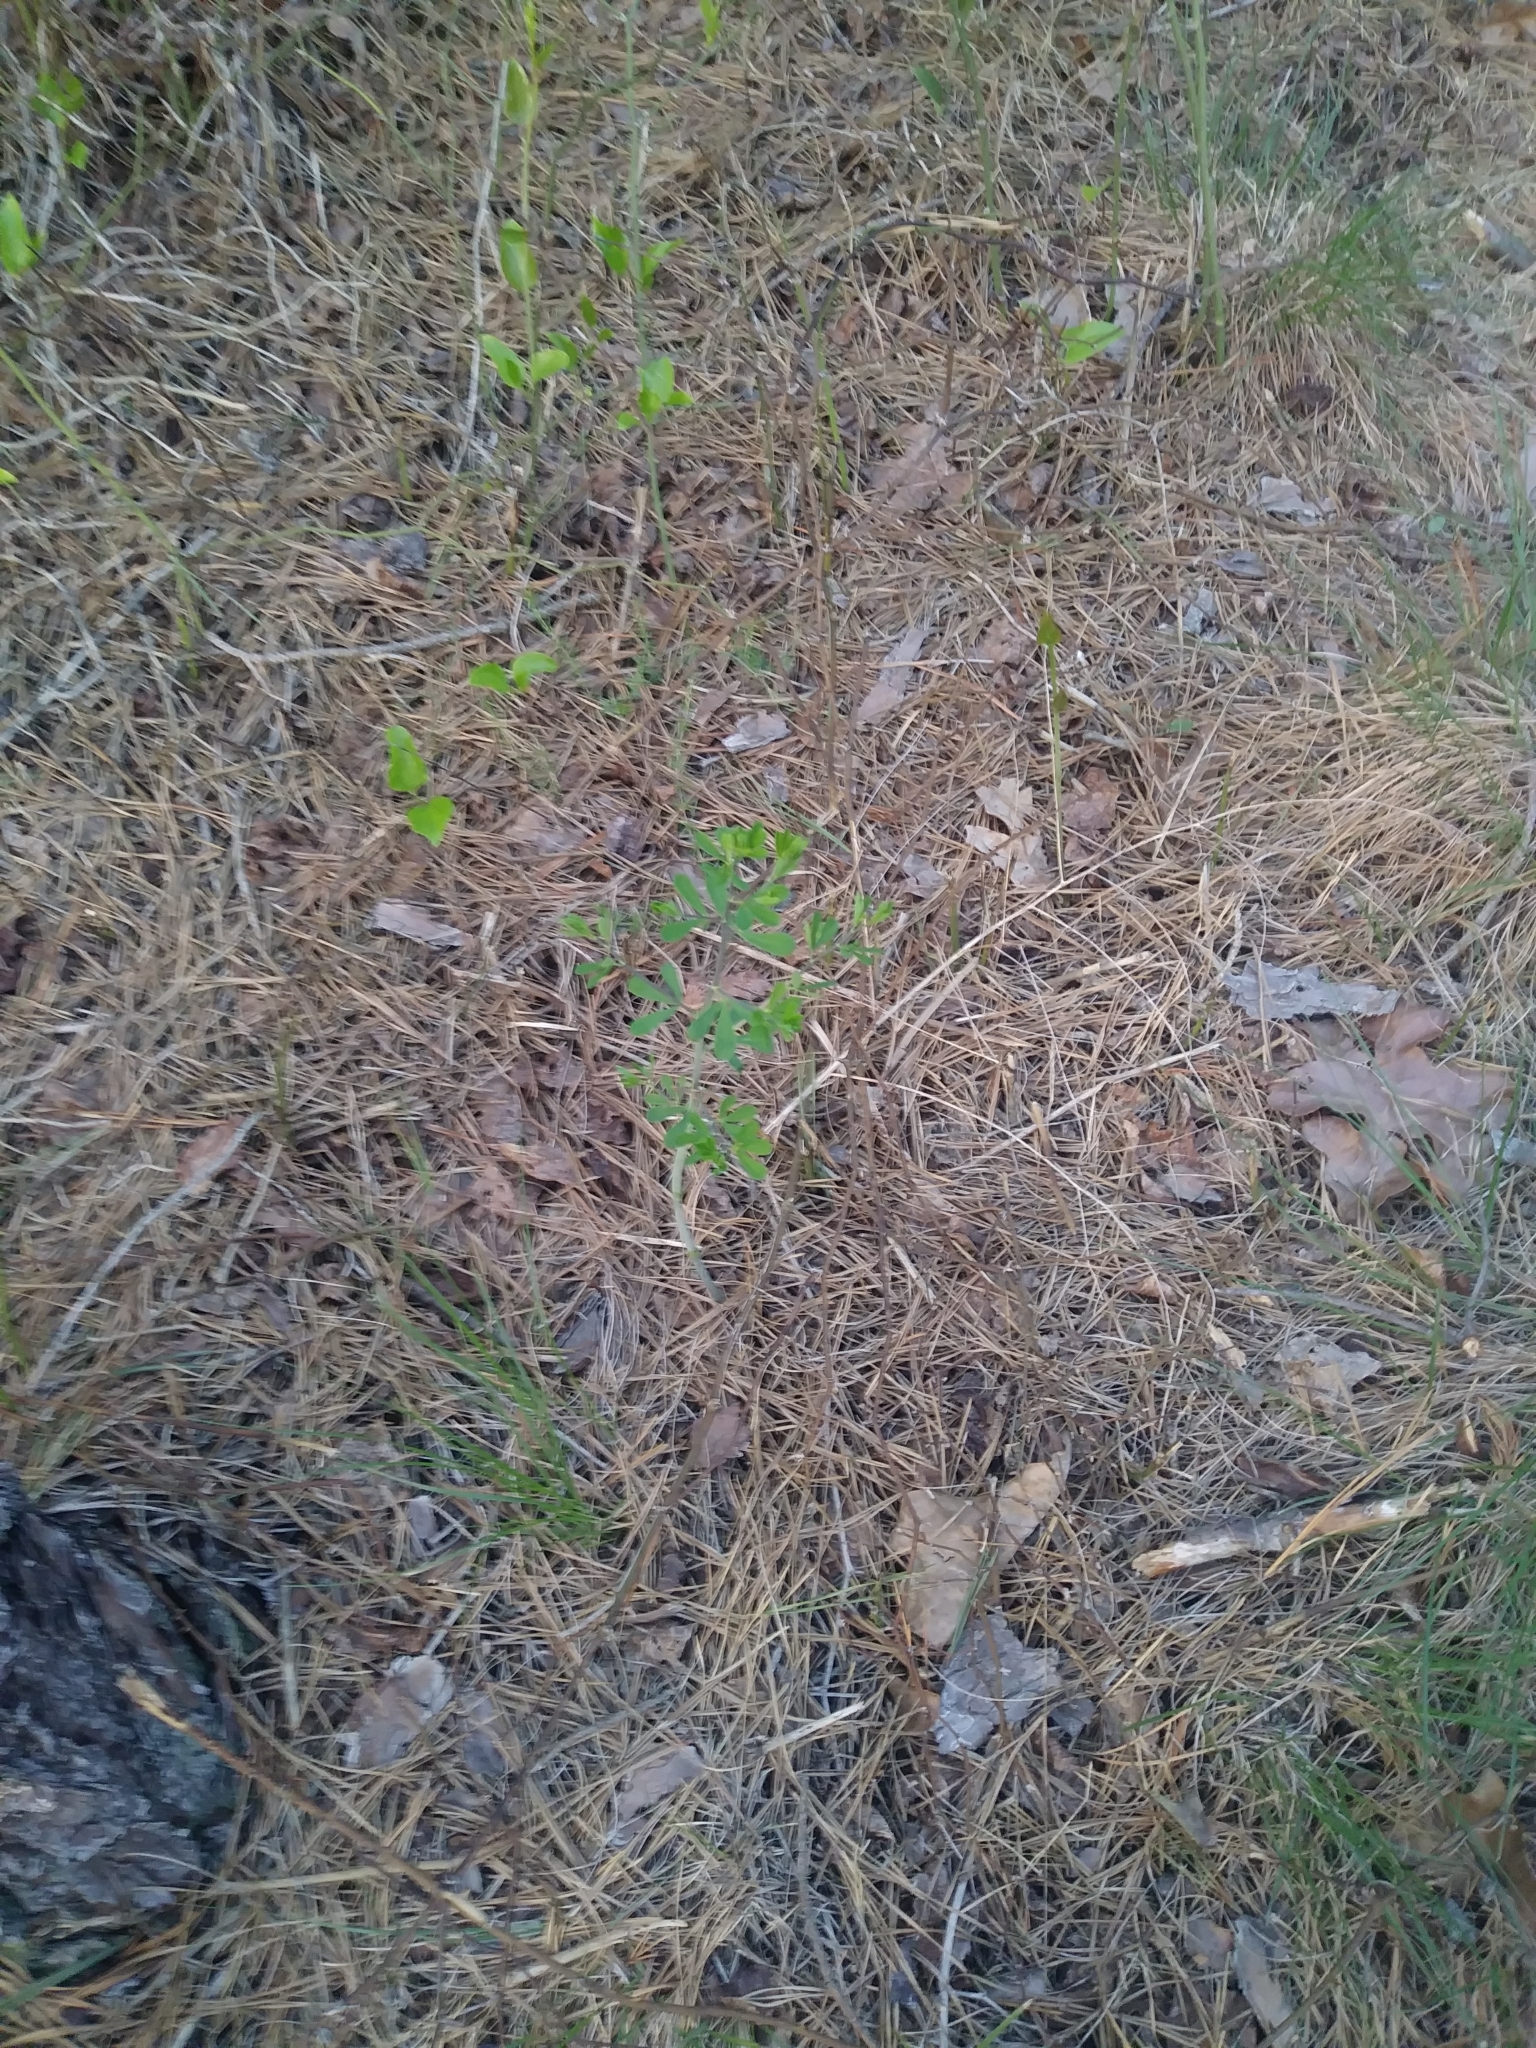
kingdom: Plantae
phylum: Tracheophyta
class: Magnoliopsida
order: Fabales
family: Fabaceae
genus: Baptisia
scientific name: Baptisia tinctoria
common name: Wild indigo
